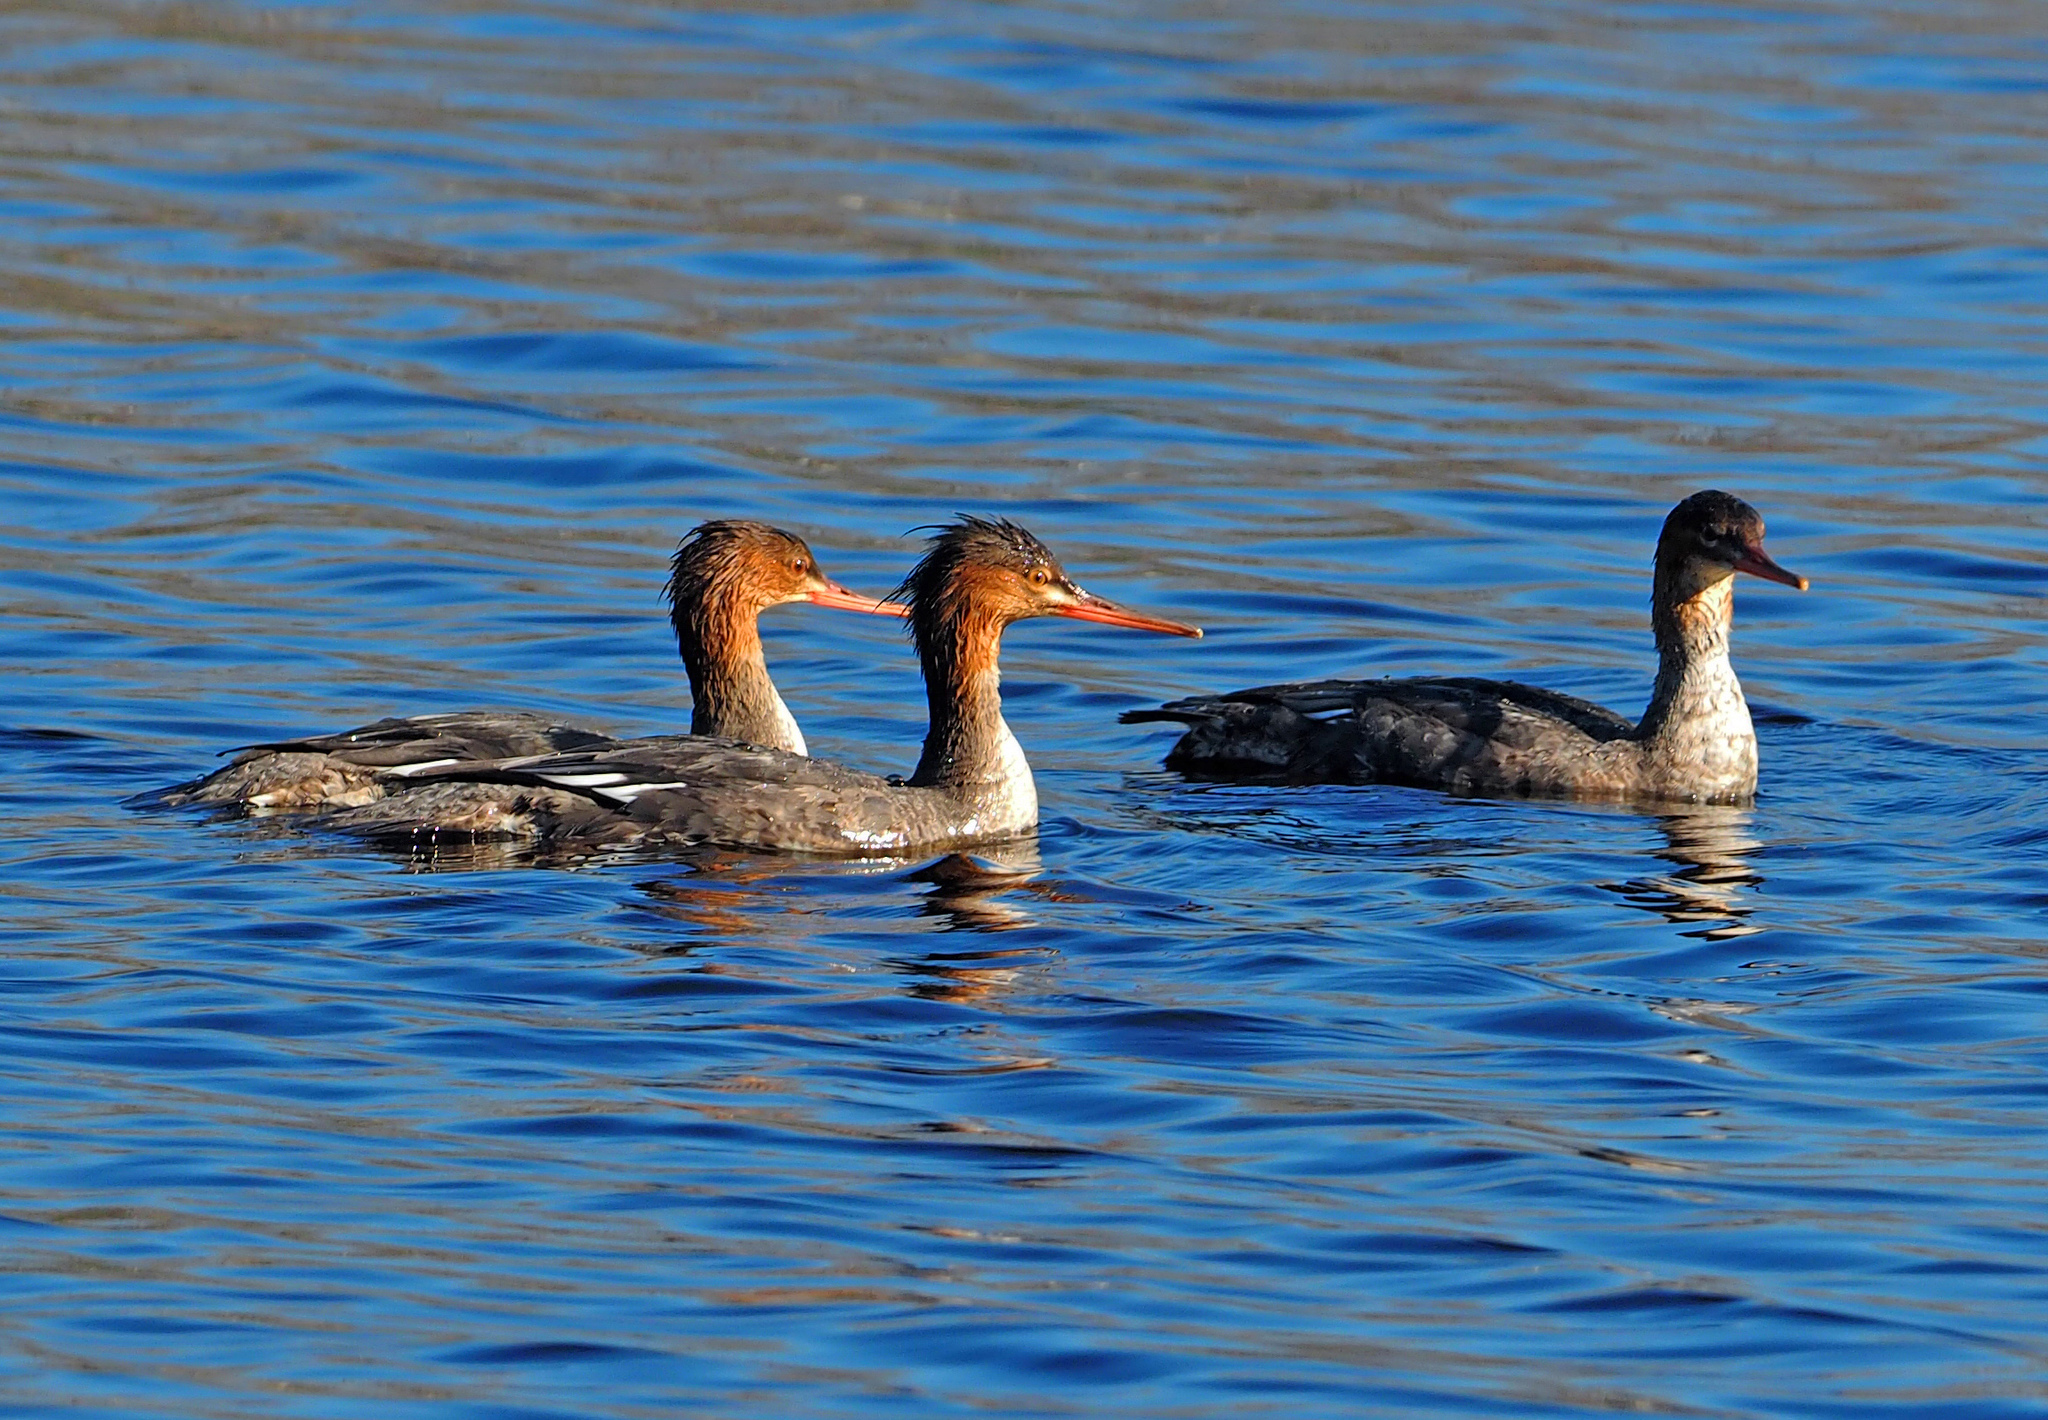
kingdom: Animalia
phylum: Chordata
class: Aves
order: Anseriformes
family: Anatidae
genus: Mergus
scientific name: Mergus serrator
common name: Red-breasted merganser
